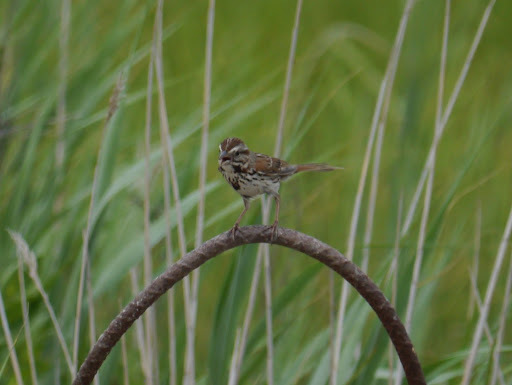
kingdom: Animalia
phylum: Chordata
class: Aves
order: Passeriformes
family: Passerellidae
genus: Melospiza
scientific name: Melospiza melodia
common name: Song sparrow
